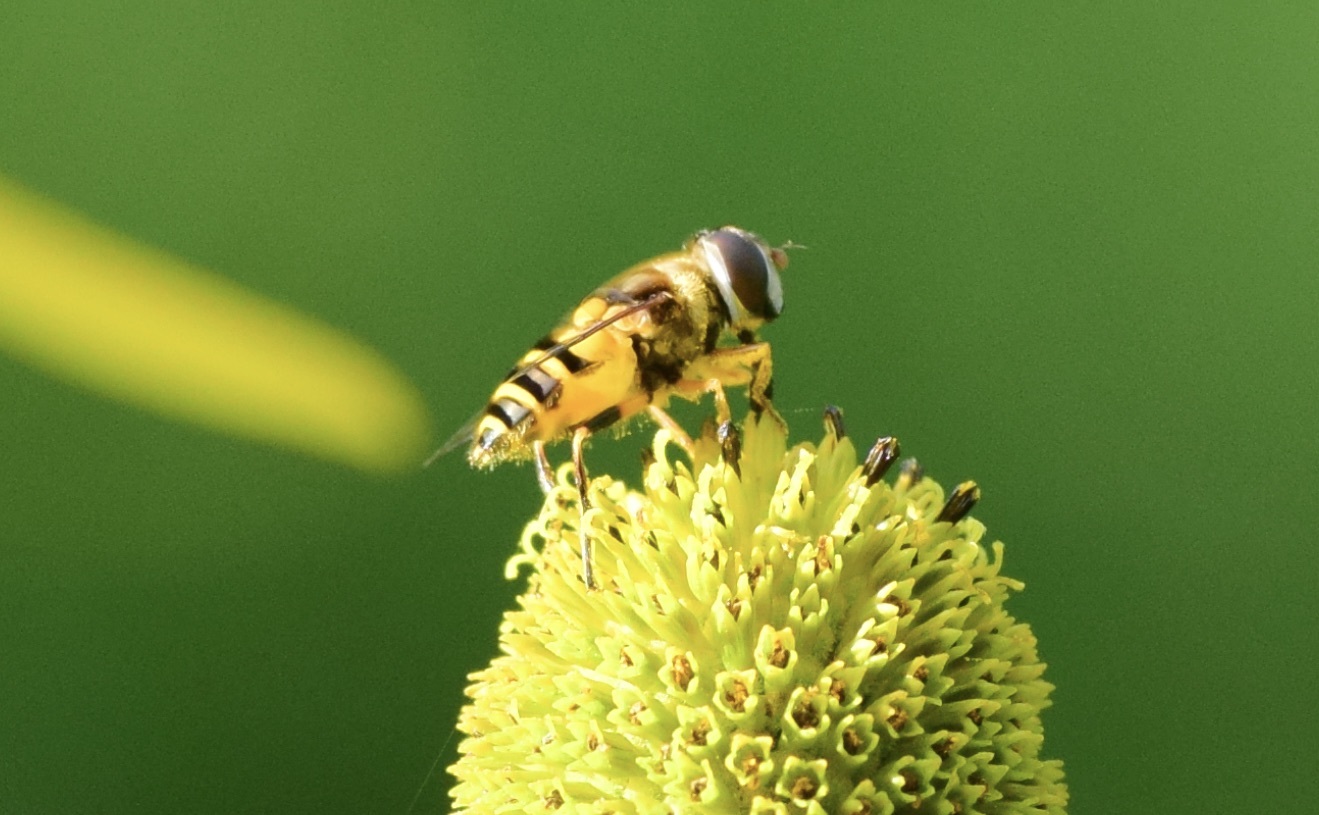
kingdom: Animalia
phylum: Arthropoda
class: Insecta
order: Diptera
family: Syrphidae
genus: Eristalis
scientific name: Eristalis transversa
